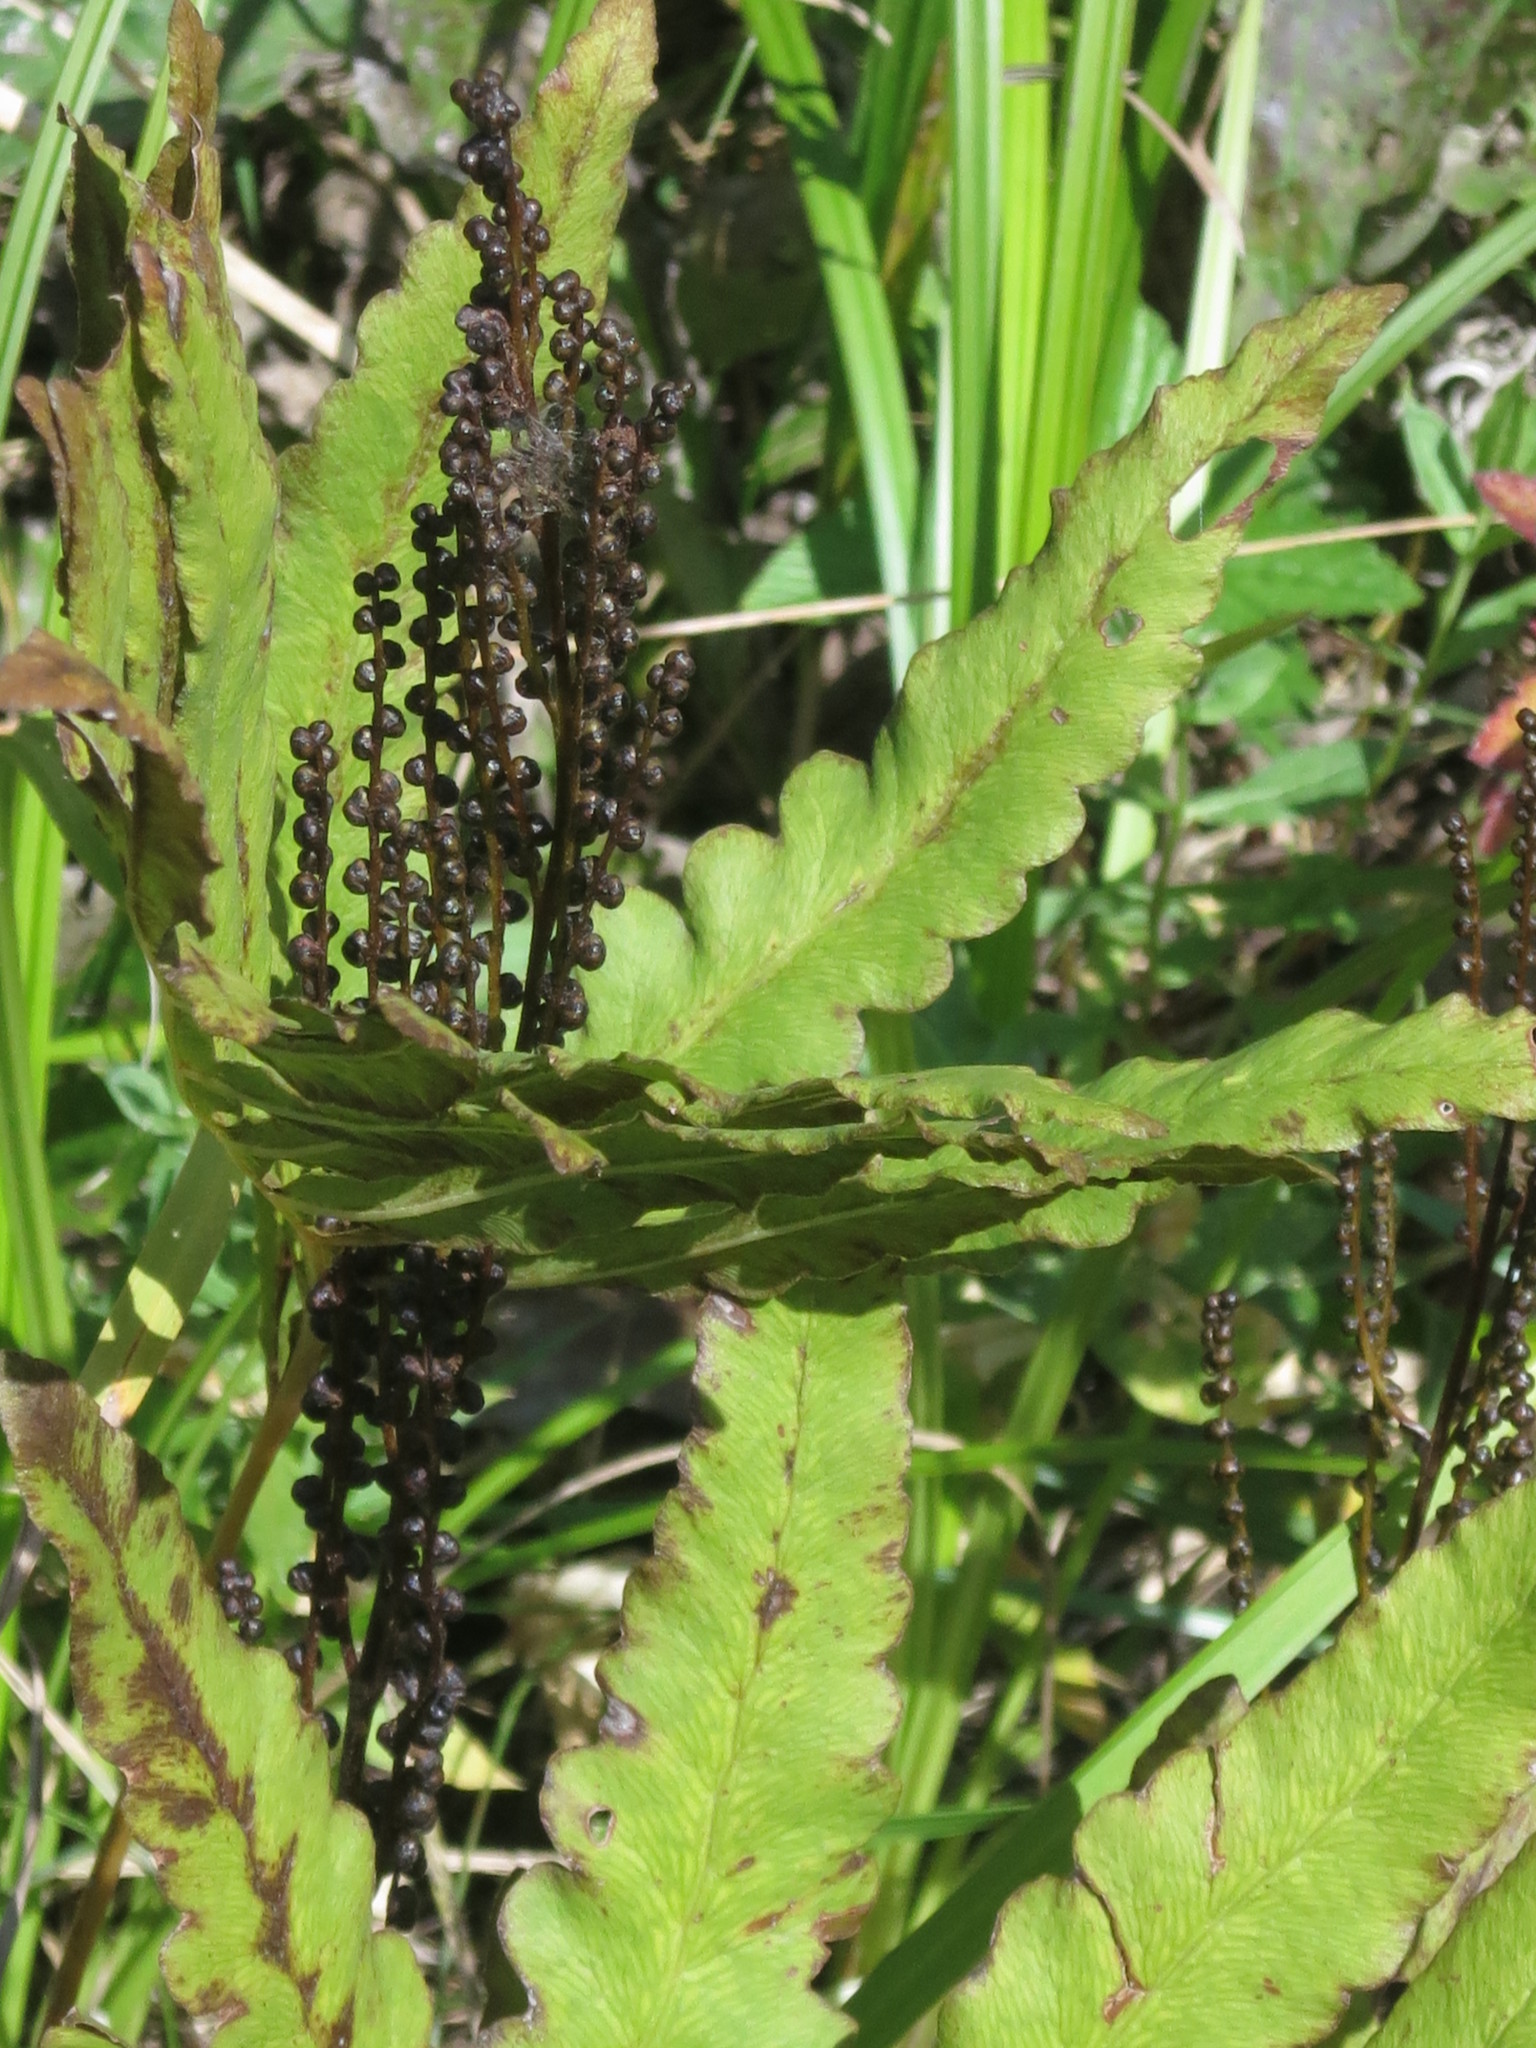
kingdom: Plantae
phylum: Tracheophyta
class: Polypodiopsida
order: Polypodiales
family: Onocleaceae
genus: Onoclea
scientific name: Onoclea sensibilis
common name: Sensitive fern
